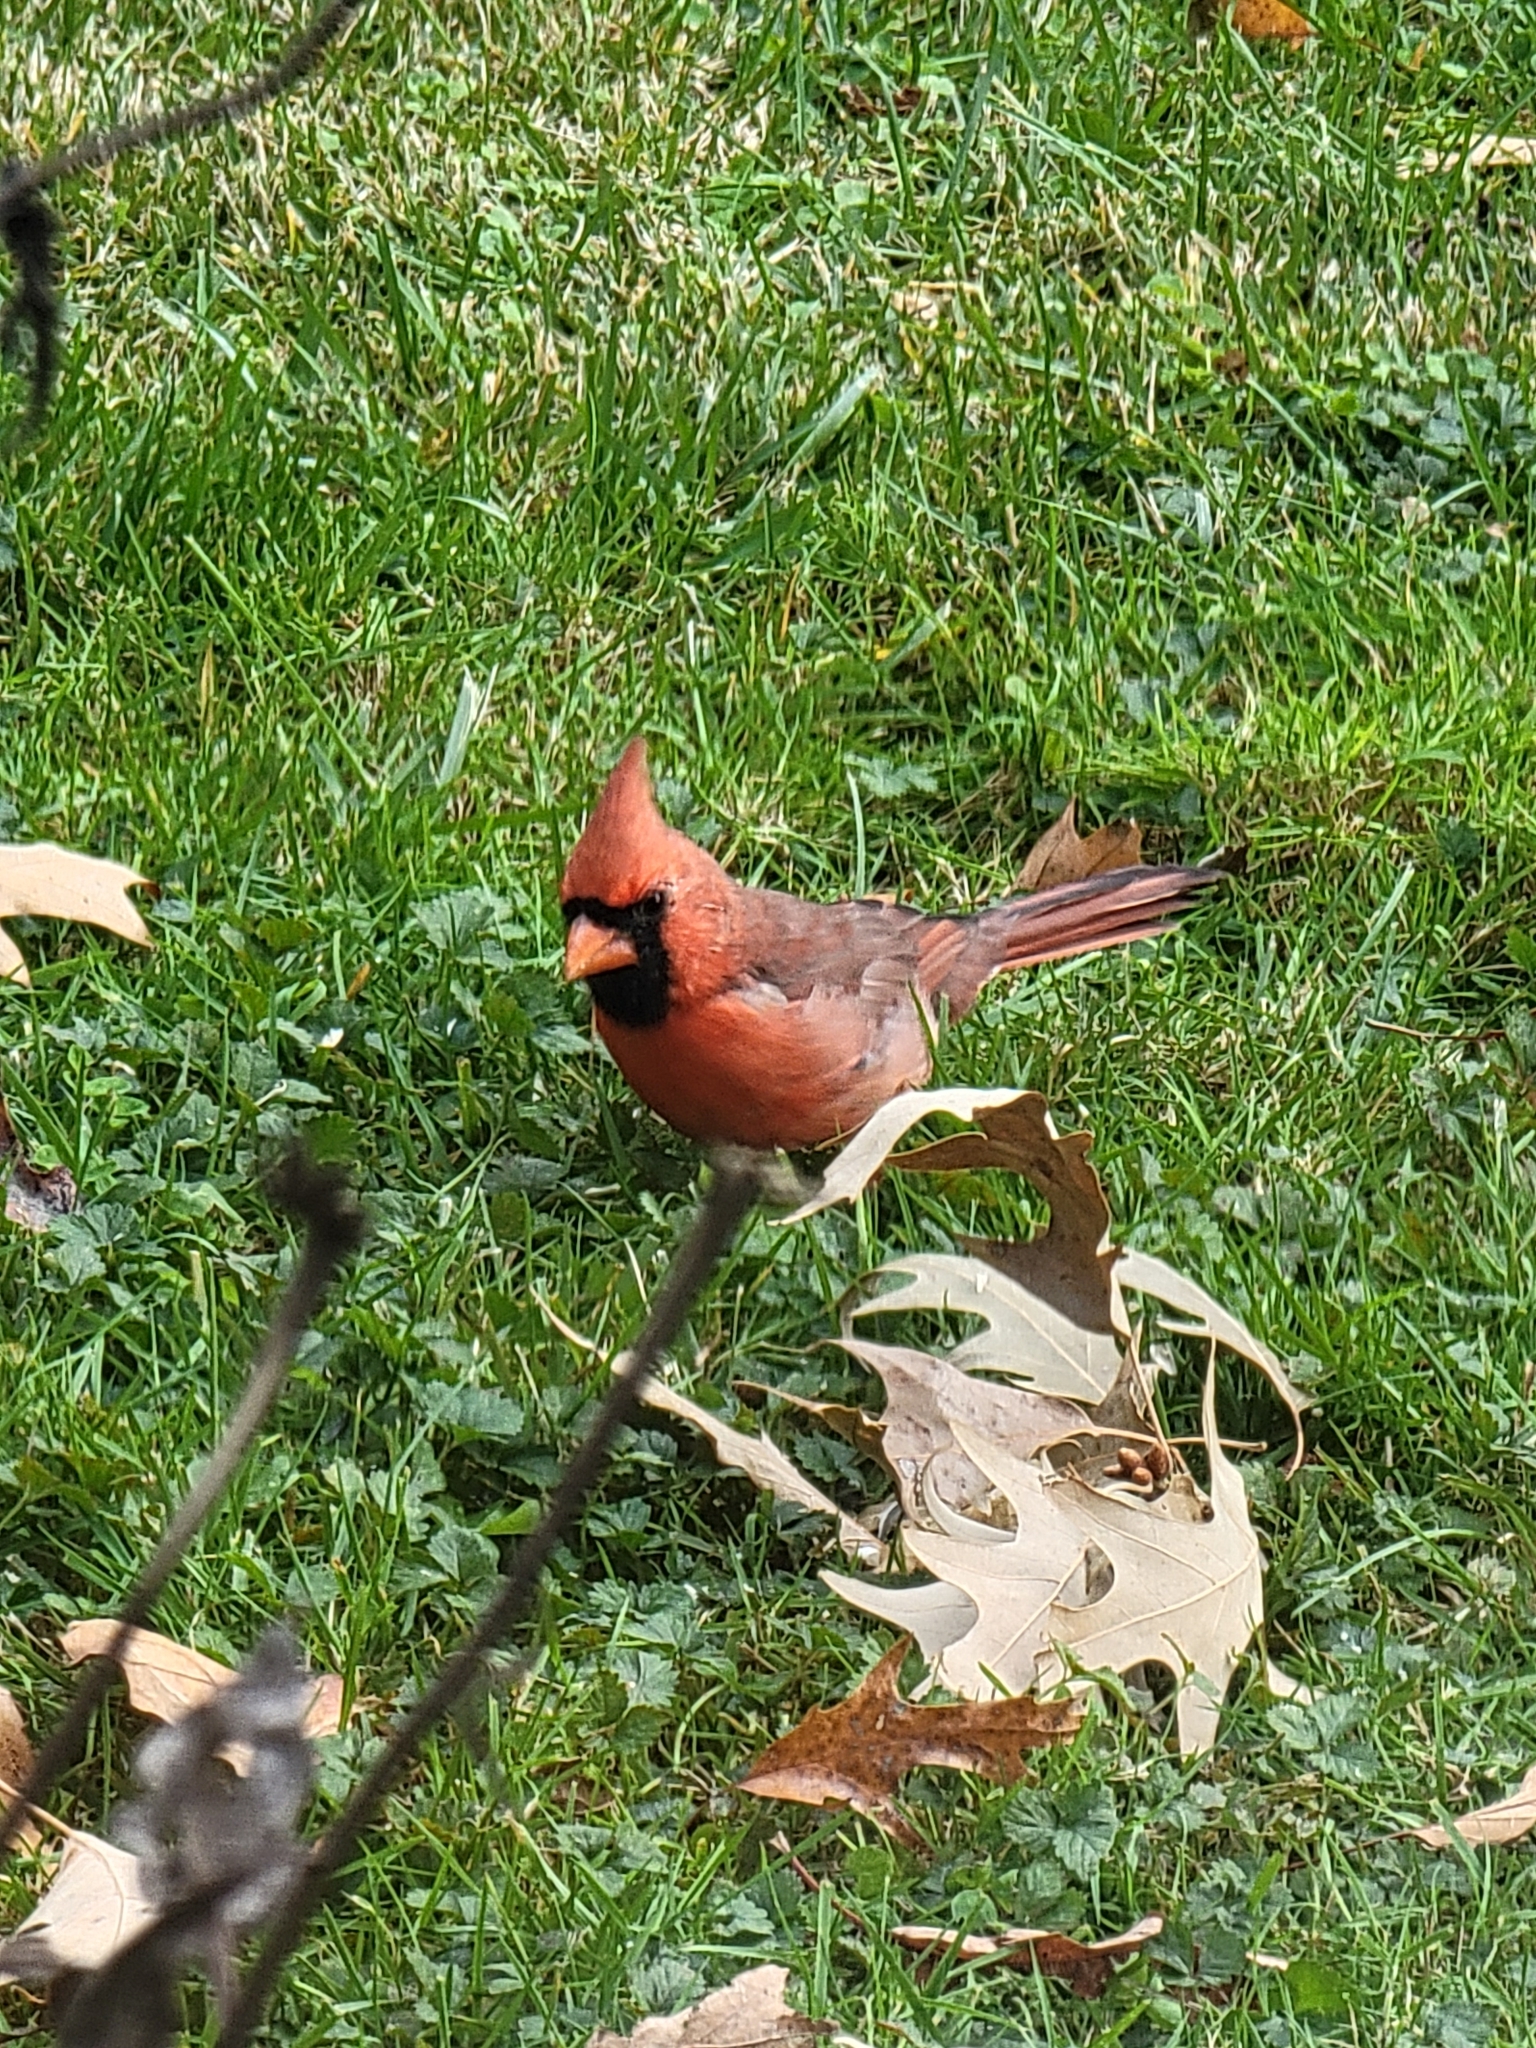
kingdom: Animalia
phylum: Chordata
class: Aves
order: Passeriformes
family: Cardinalidae
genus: Cardinalis
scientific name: Cardinalis cardinalis
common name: Northern cardinal
